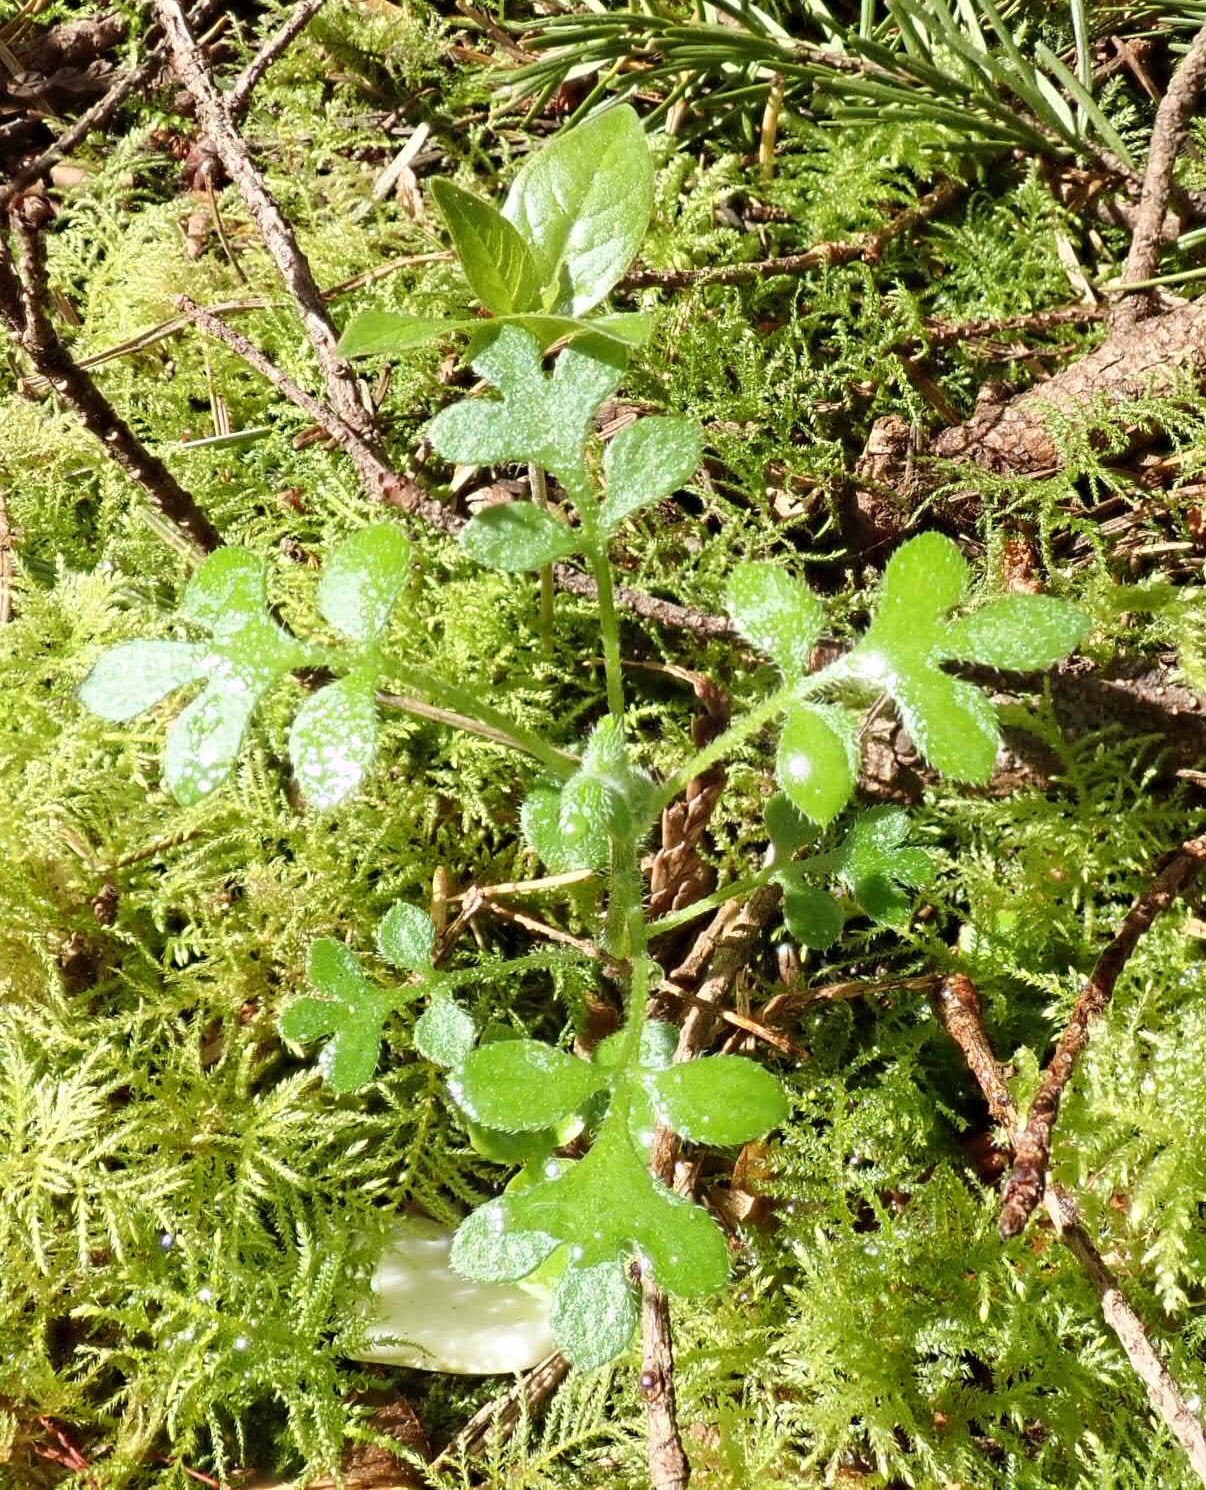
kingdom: Plantae
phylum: Tracheophyta
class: Magnoliopsida
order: Boraginales
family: Hydrophyllaceae
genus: Nemophila
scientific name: Nemophila parviflora
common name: Small-flowered baby-blue-eyes
